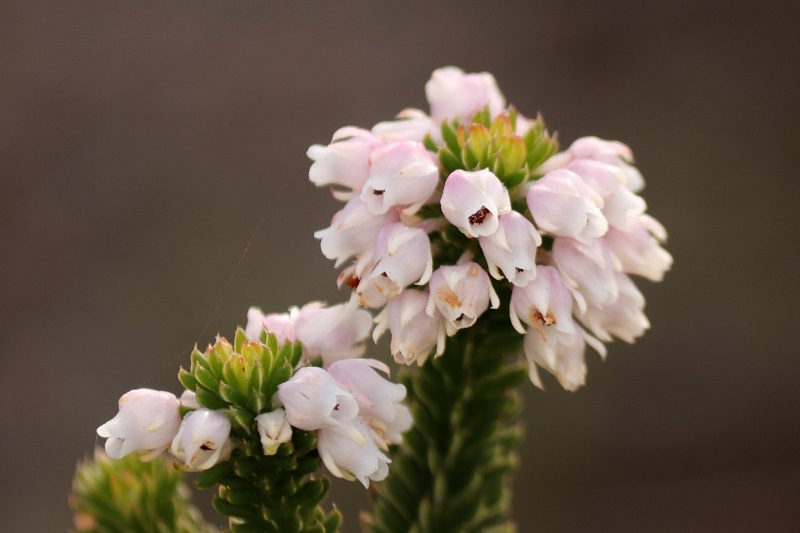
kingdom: Plantae
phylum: Tracheophyta
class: Magnoliopsida
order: Ericales
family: Ericaceae
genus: Erica
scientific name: Erica pulvinata
